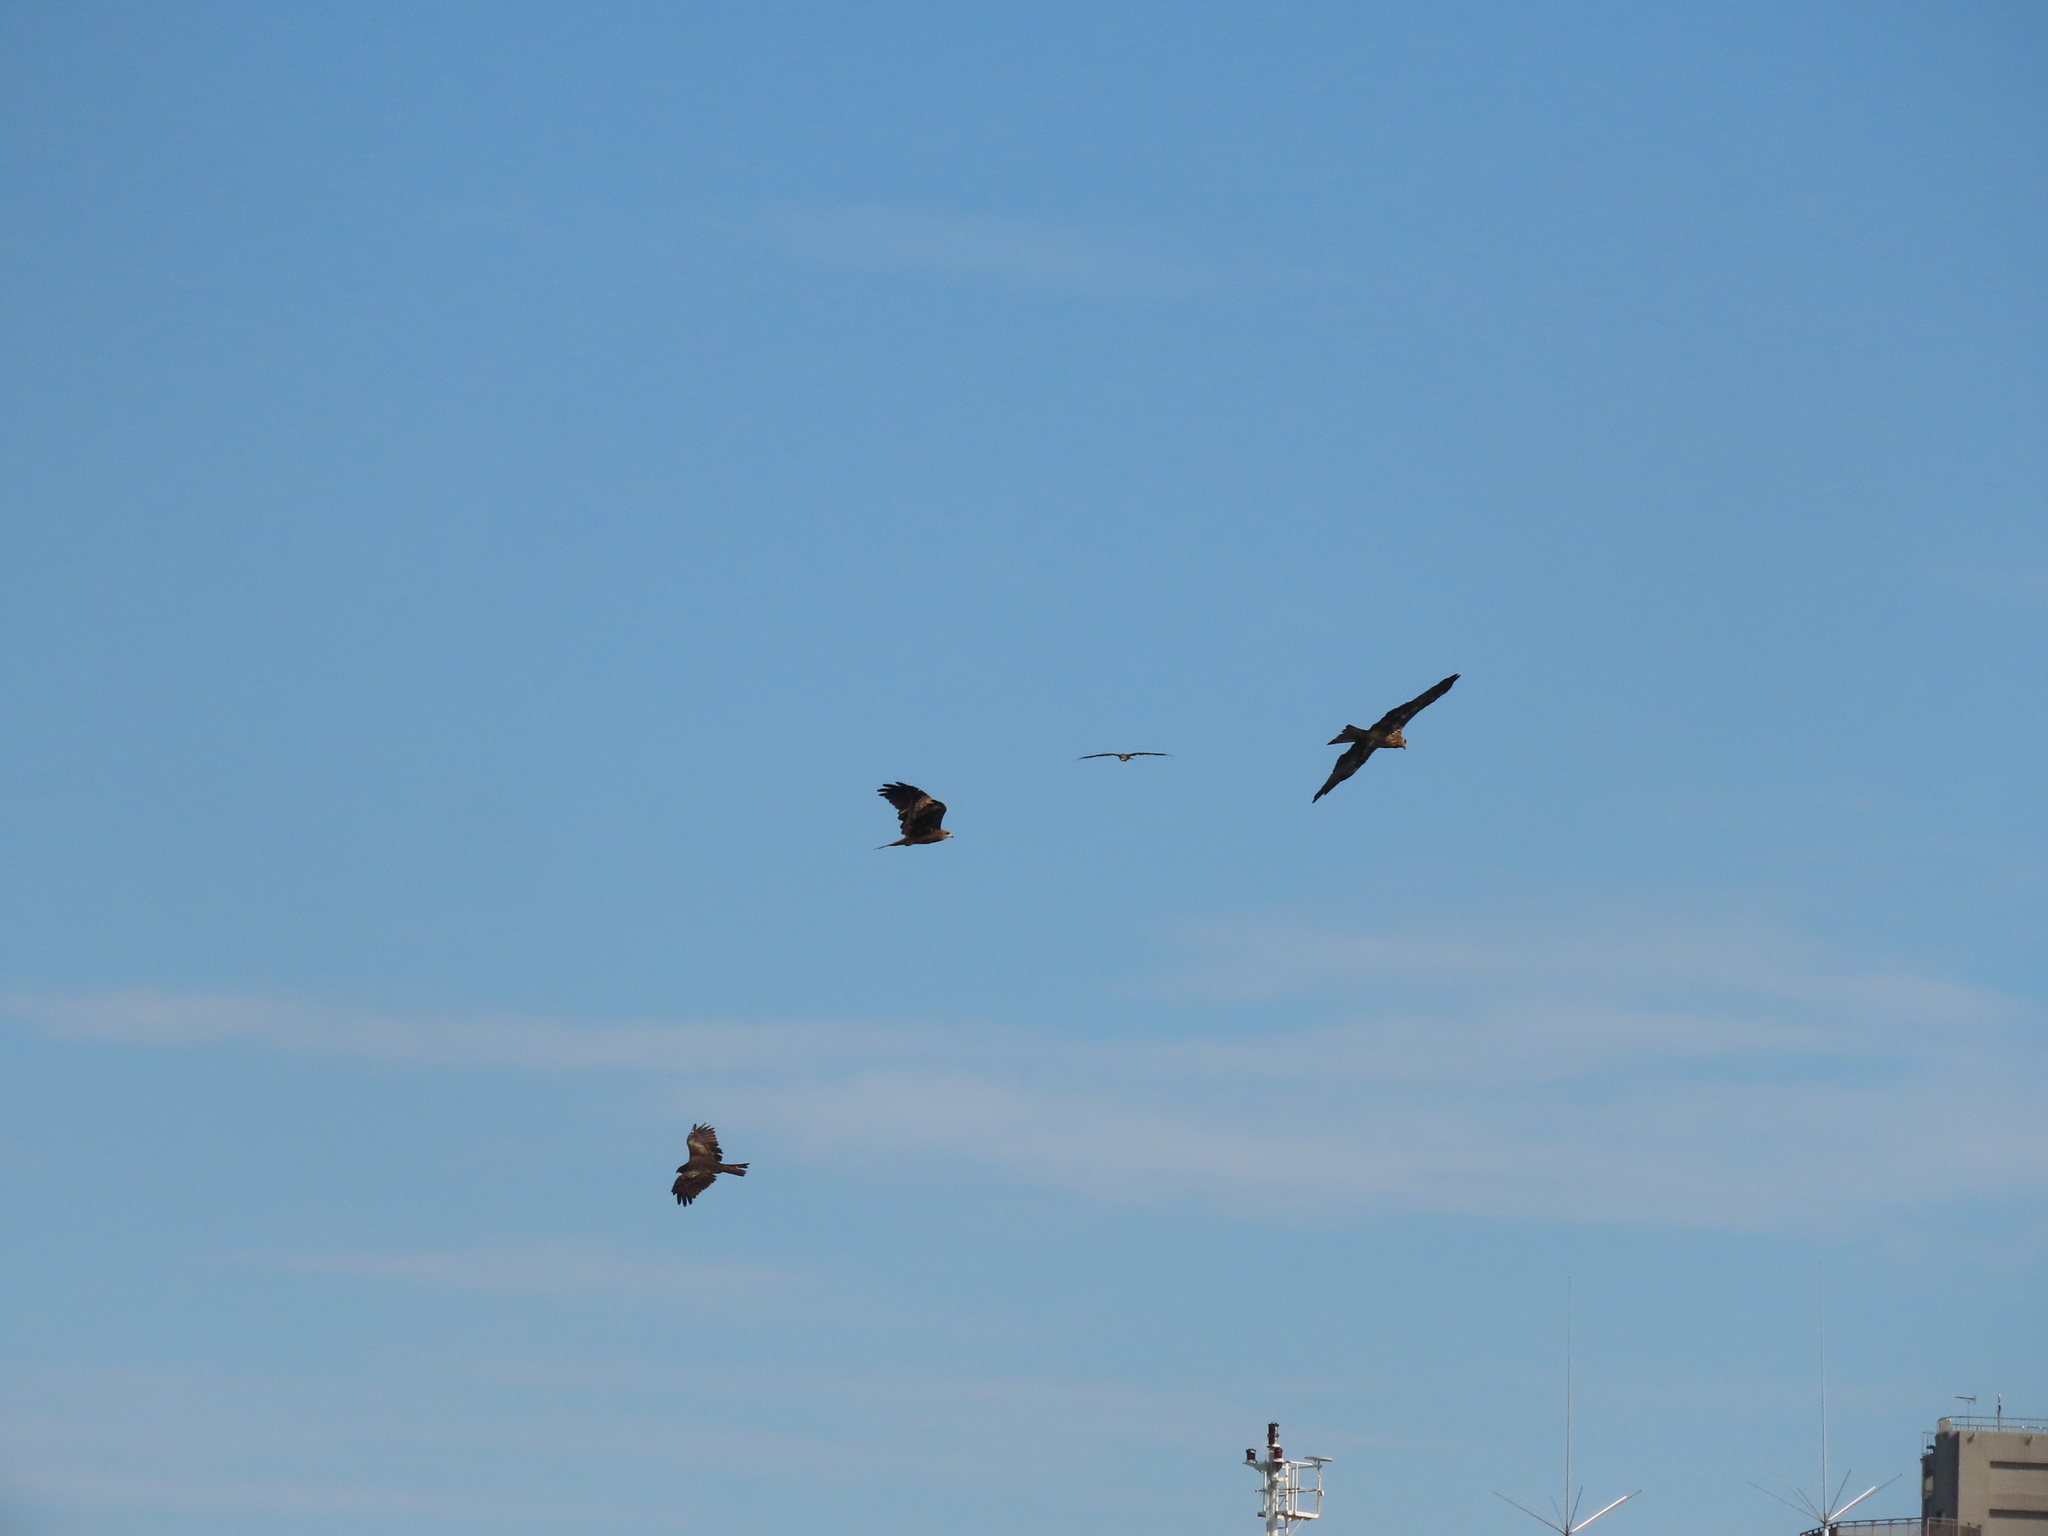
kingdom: Animalia
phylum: Chordata
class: Aves
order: Accipitriformes
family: Accipitridae
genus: Milvus
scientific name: Milvus migrans
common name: Black kite
